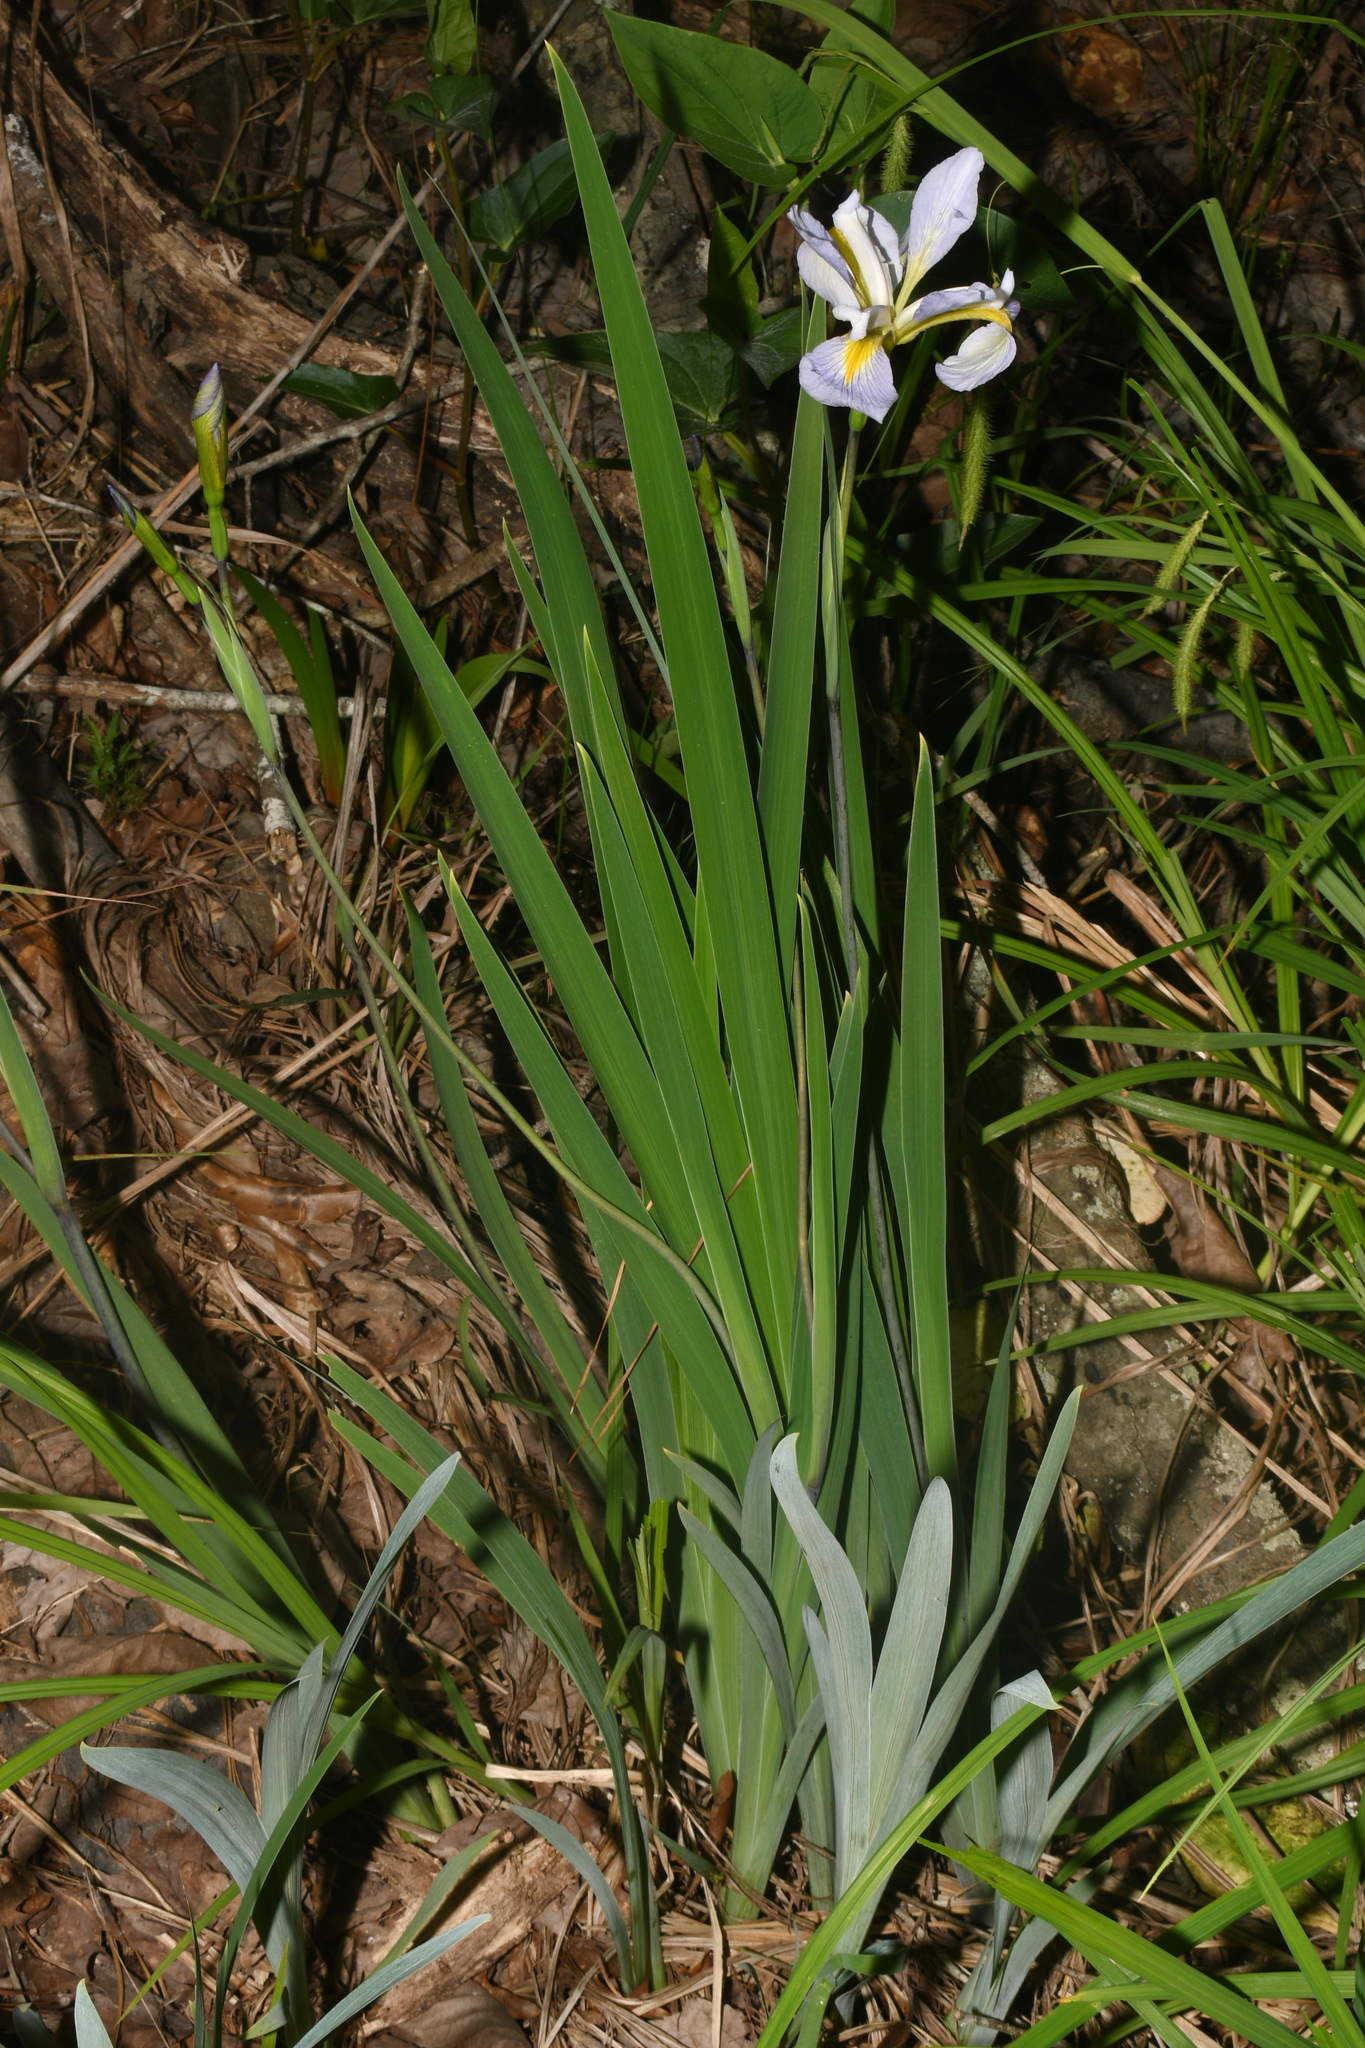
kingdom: Plantae
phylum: Tracheophyta
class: Liliopsida
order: Asparagales
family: Iridaceae
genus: Iris
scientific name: Iris virginica
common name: Southern blue flag
